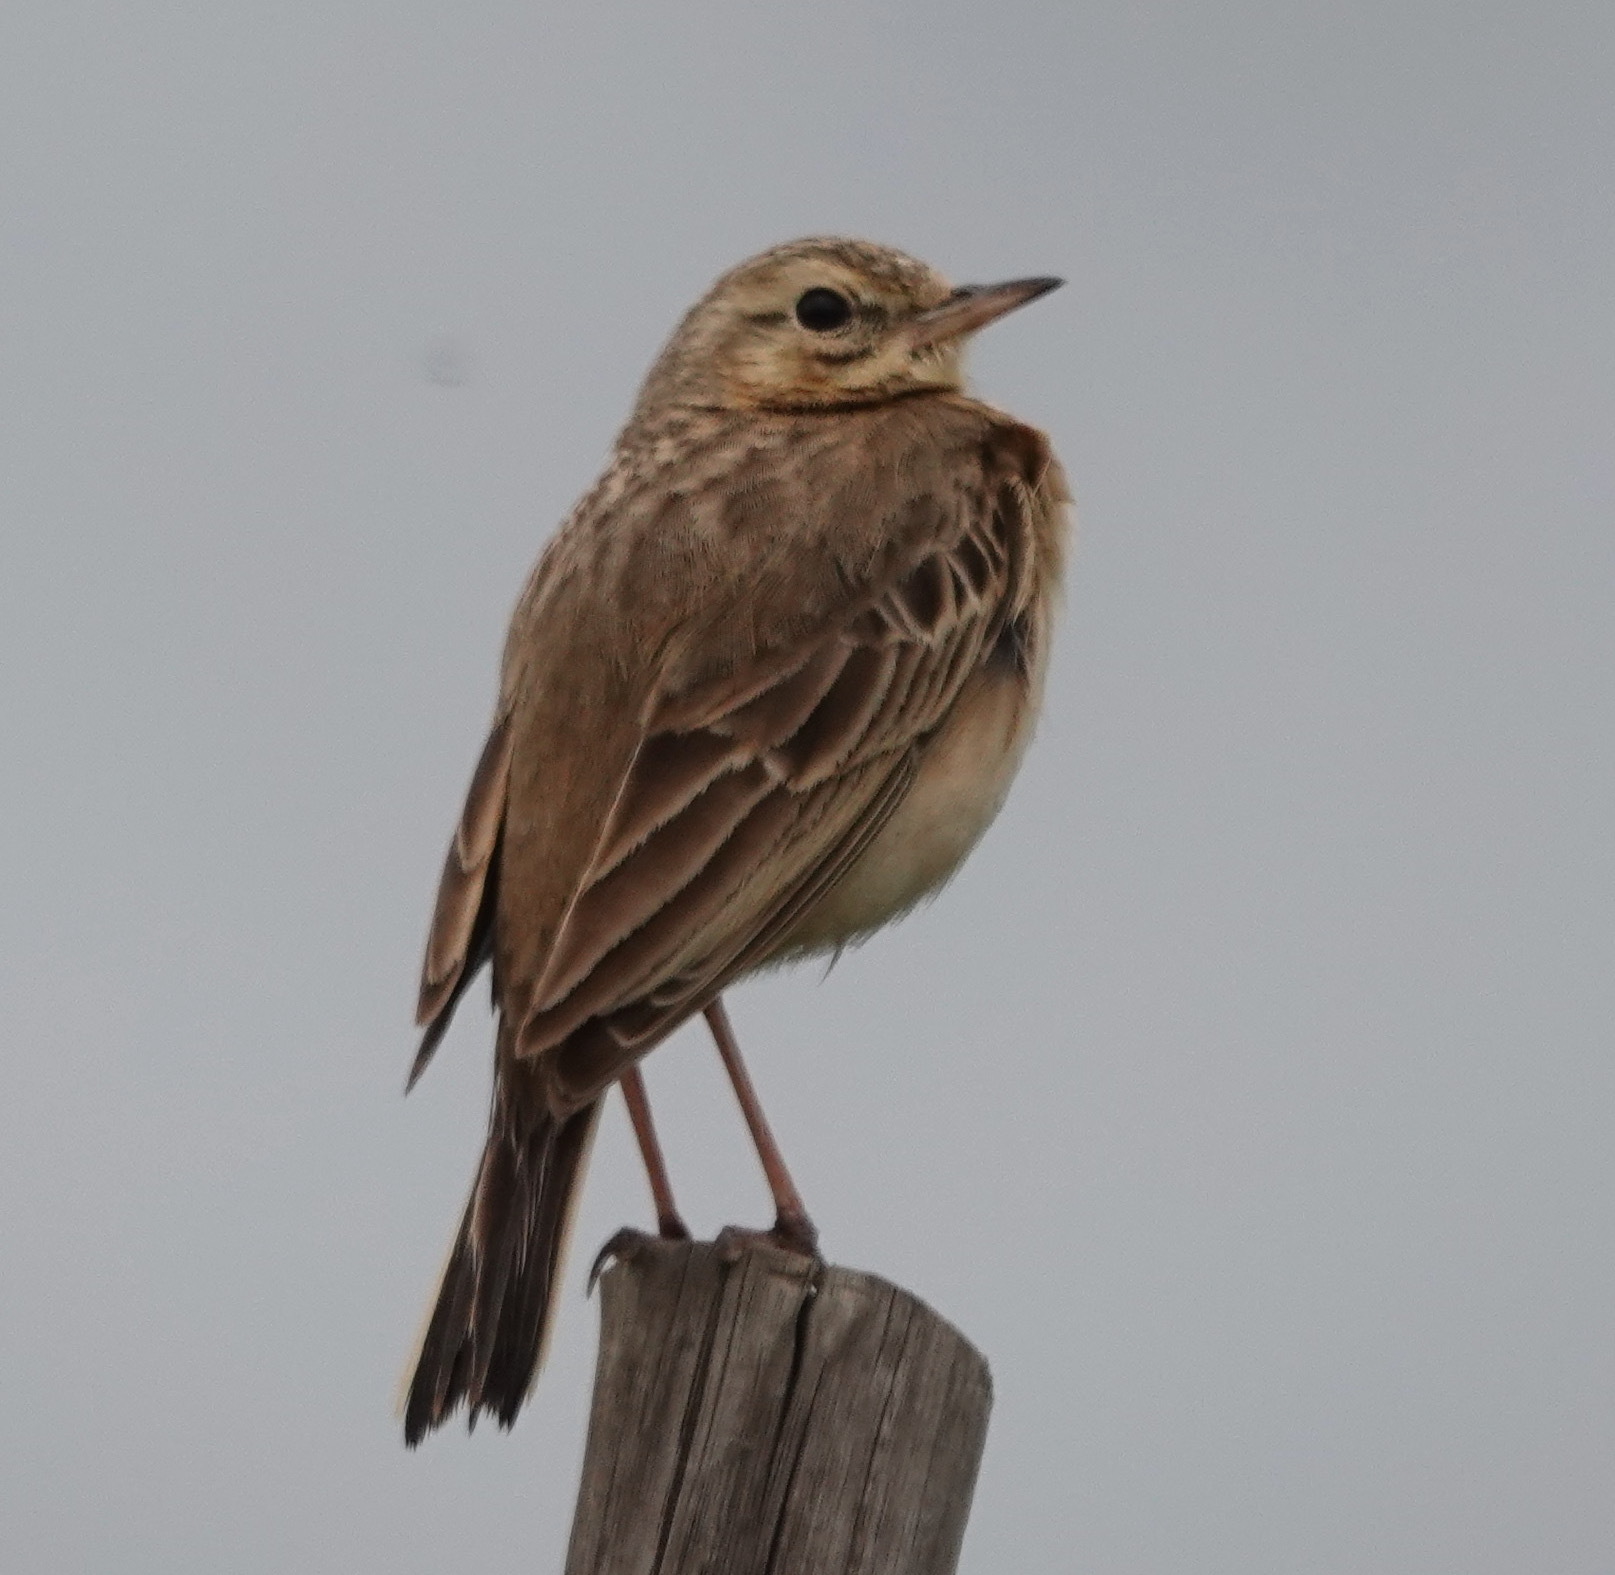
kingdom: Animalia
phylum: Chordata
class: Aves
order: Passeriformes
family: Motacillidae
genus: Anthus
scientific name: Anthus cinnamomeus
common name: African pipit
